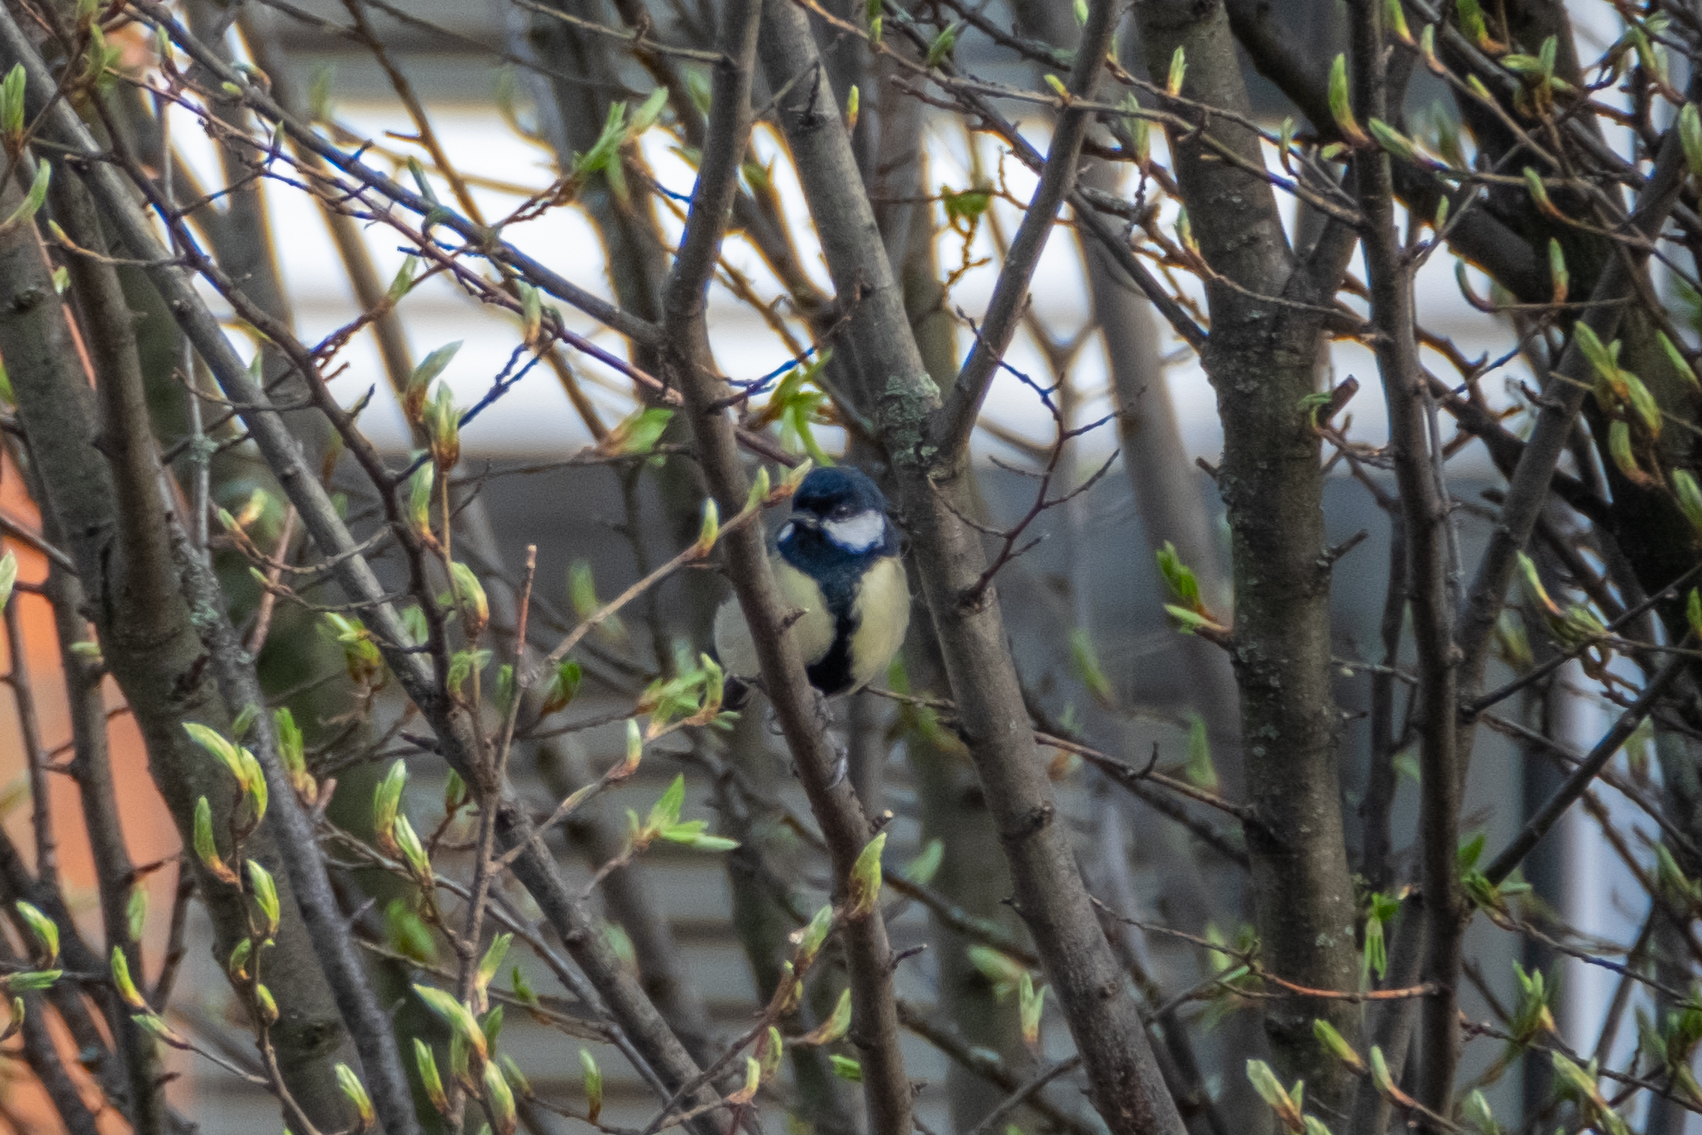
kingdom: Animalia
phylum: Chordata
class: Aves
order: Passeriformes
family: Paridae
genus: Parus
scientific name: Parus major
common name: Great tit
